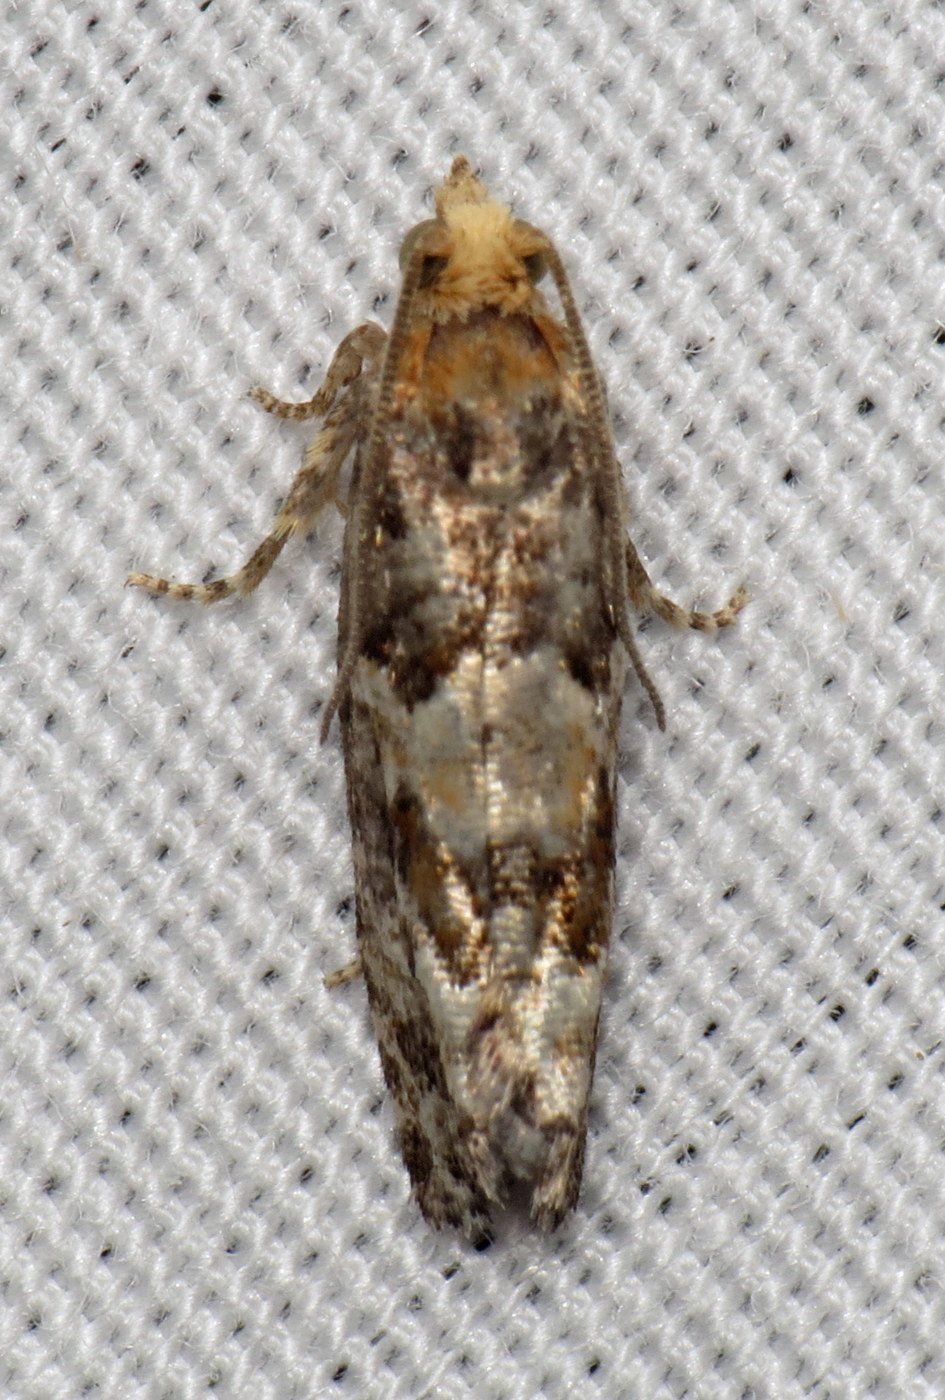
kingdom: Animalia
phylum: Arthropoda
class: Insecta
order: Lepidoptera
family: Tortricidae
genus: Eucopina
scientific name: Eucopina tocullionana
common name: White pinecone borer moth
